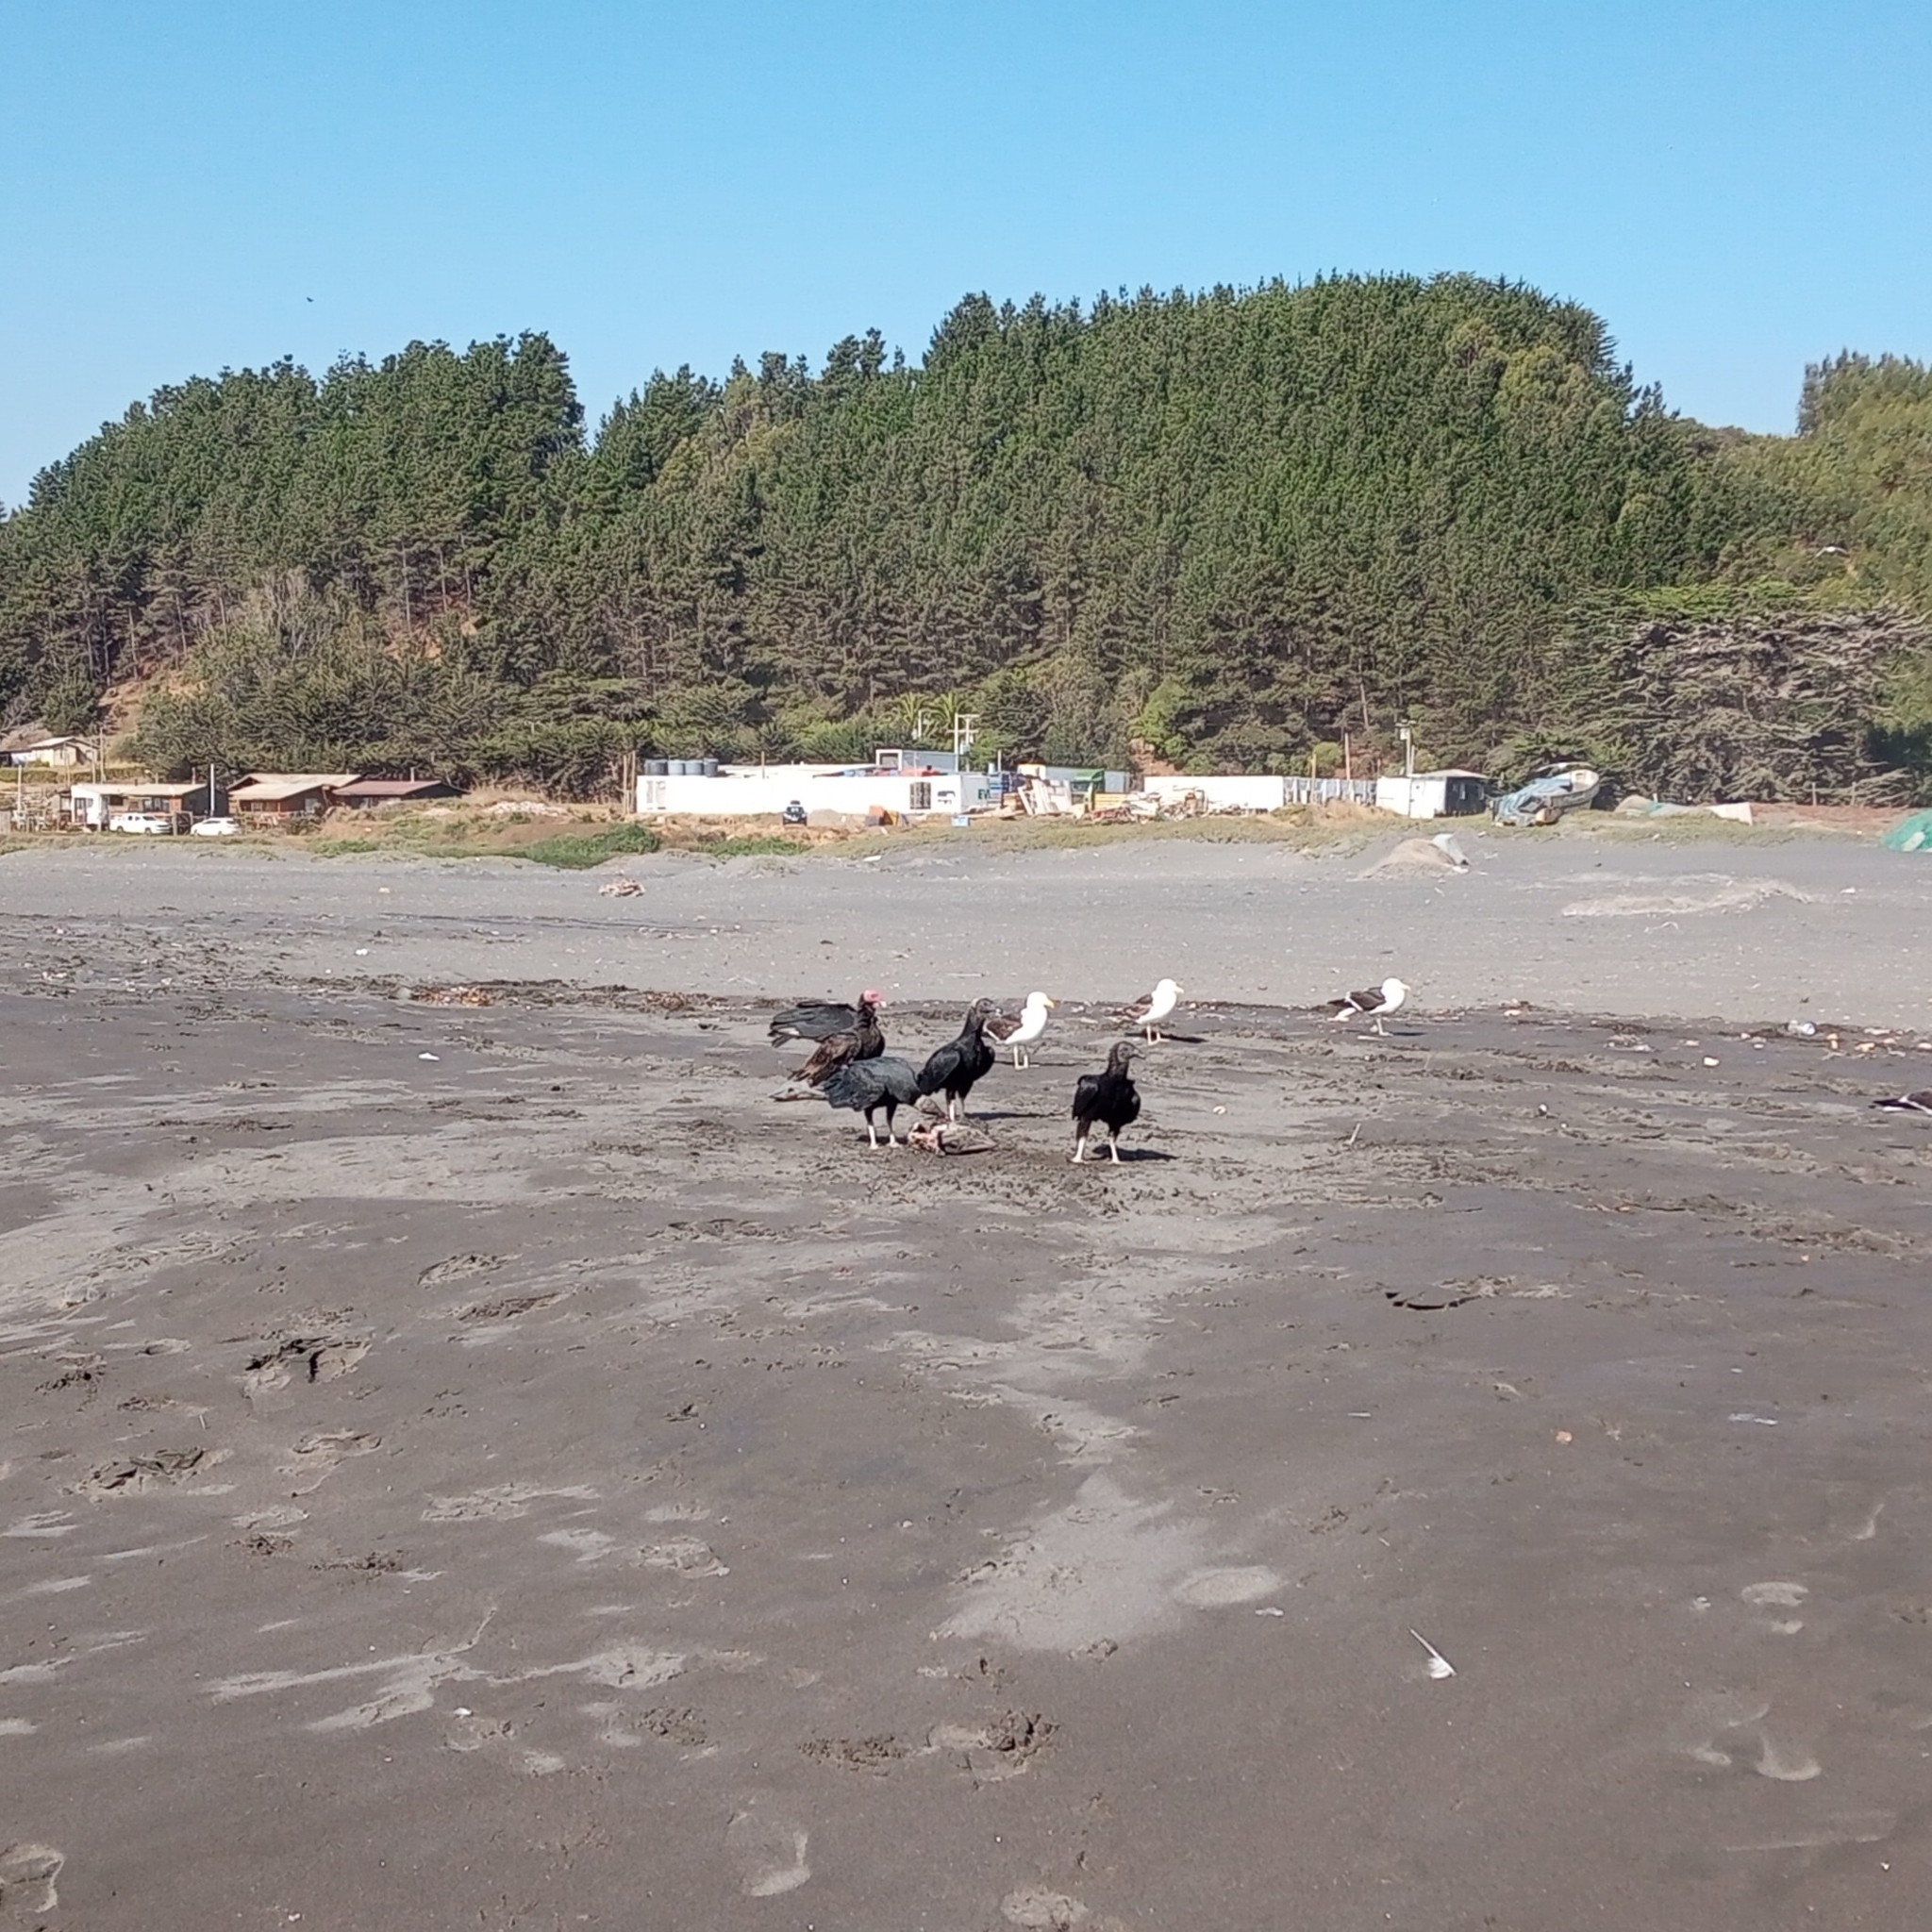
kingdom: Animalia
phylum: Chordata
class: Aves
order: Accipitriformes
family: Cathartidae
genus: Coragyps
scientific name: Coragyps atratus
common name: Black vulture
